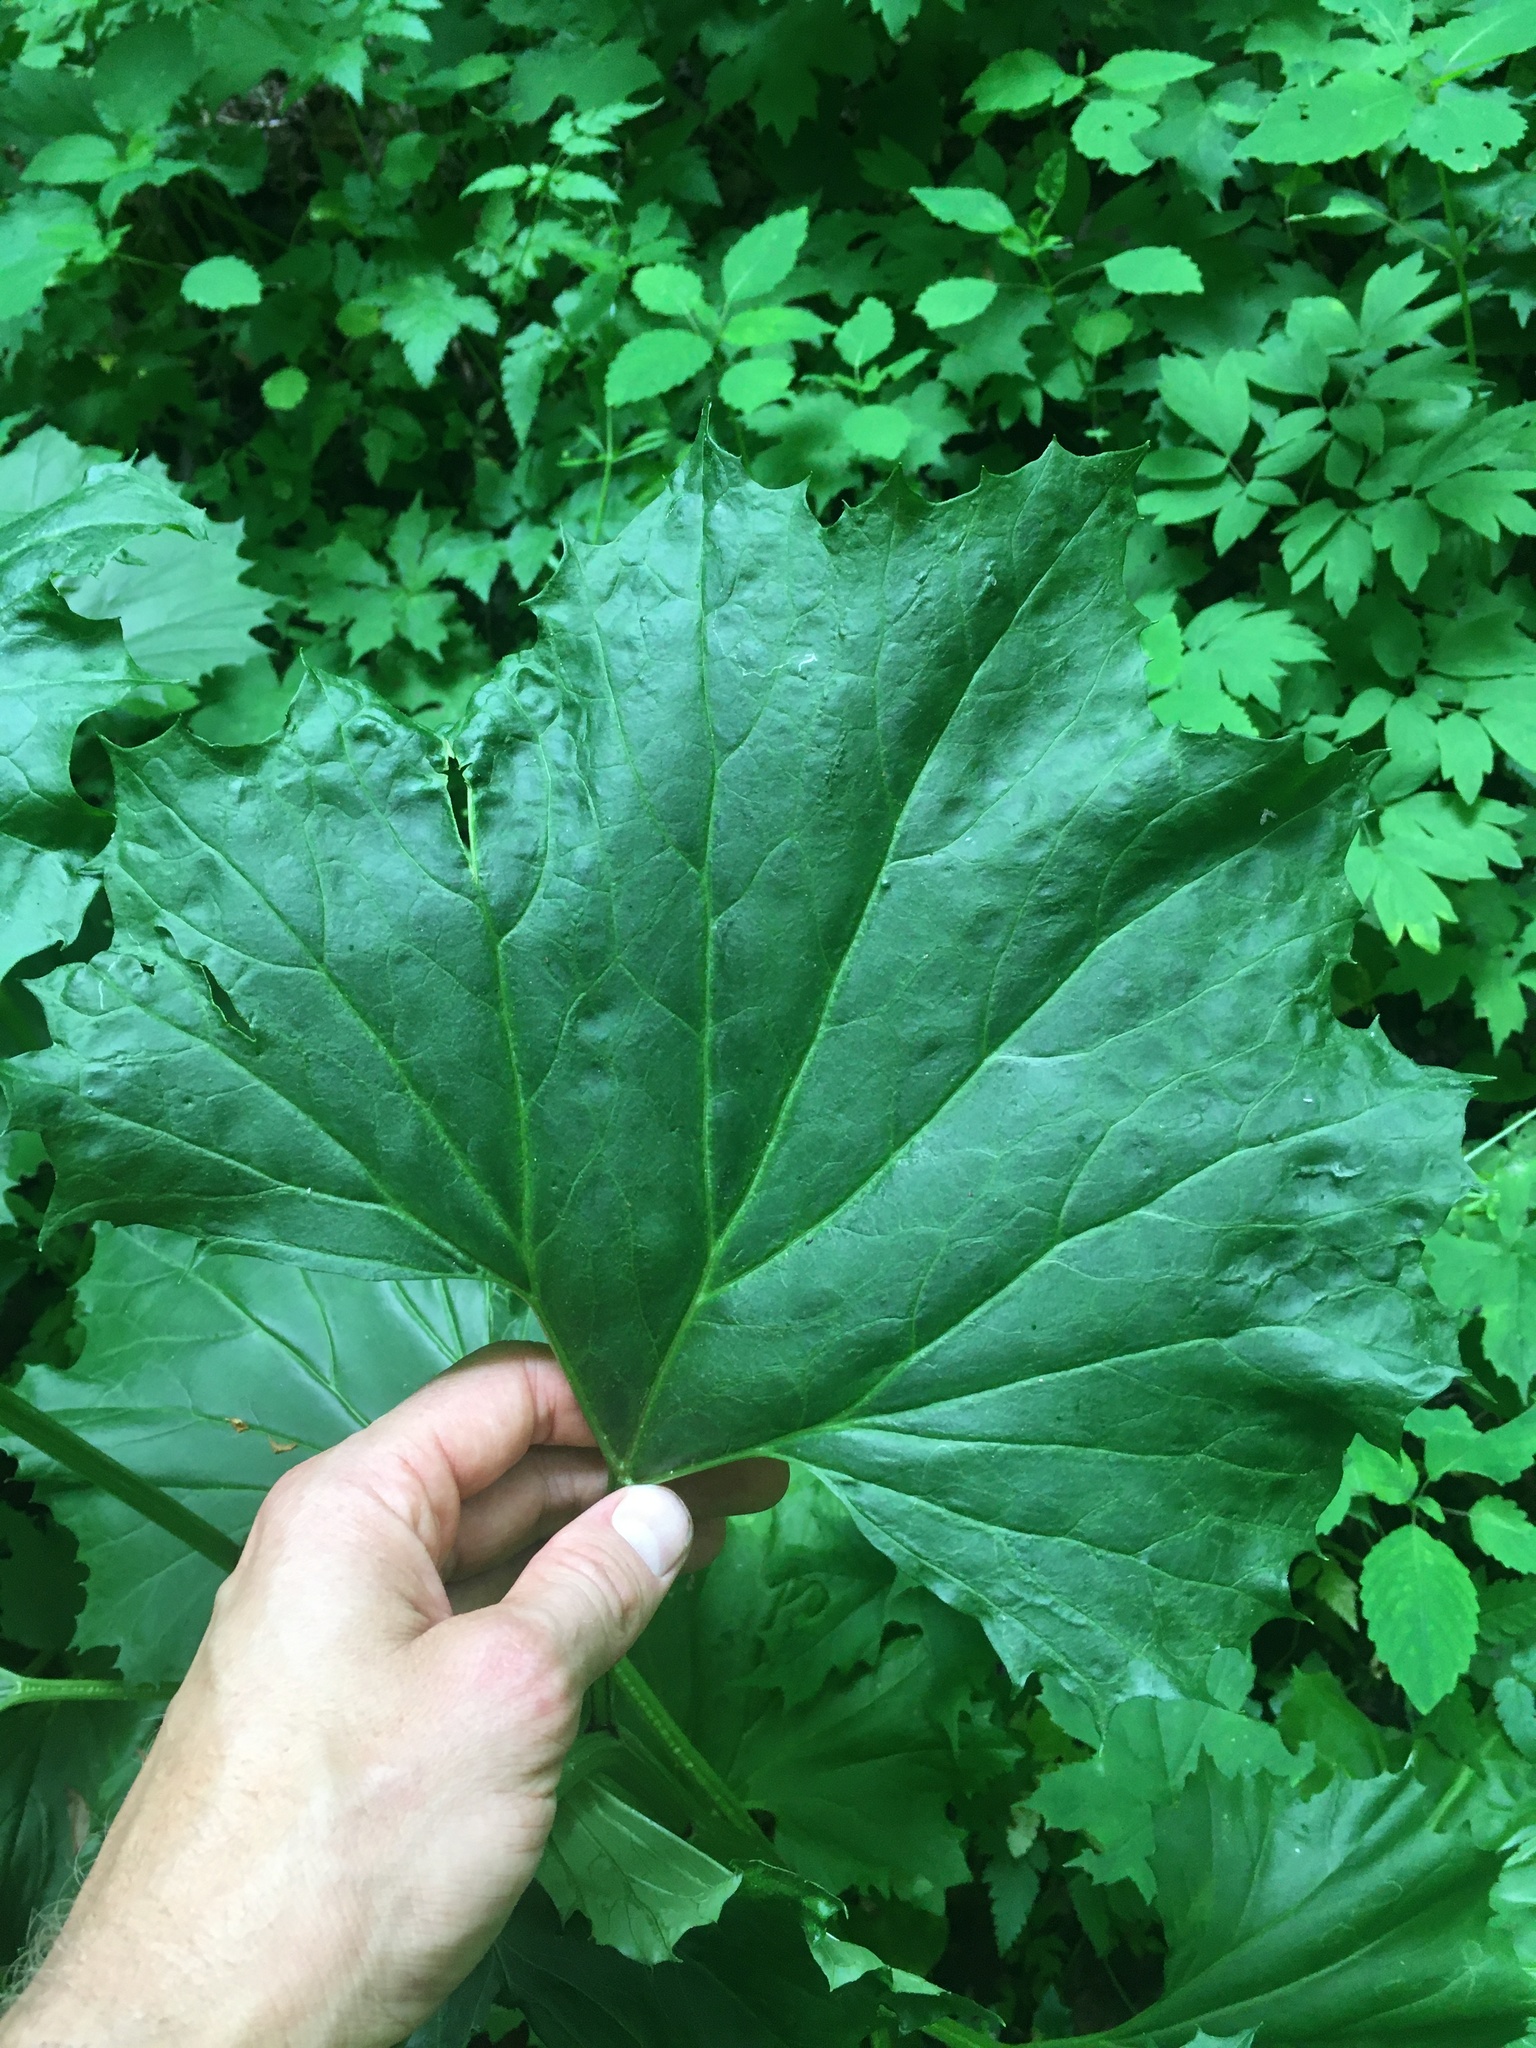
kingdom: Plantae
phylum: Tracheophyta
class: Magnoliopsida
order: Asterales
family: Asteraceae
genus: Arnoglossum
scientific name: Arnoglossum reniforme
